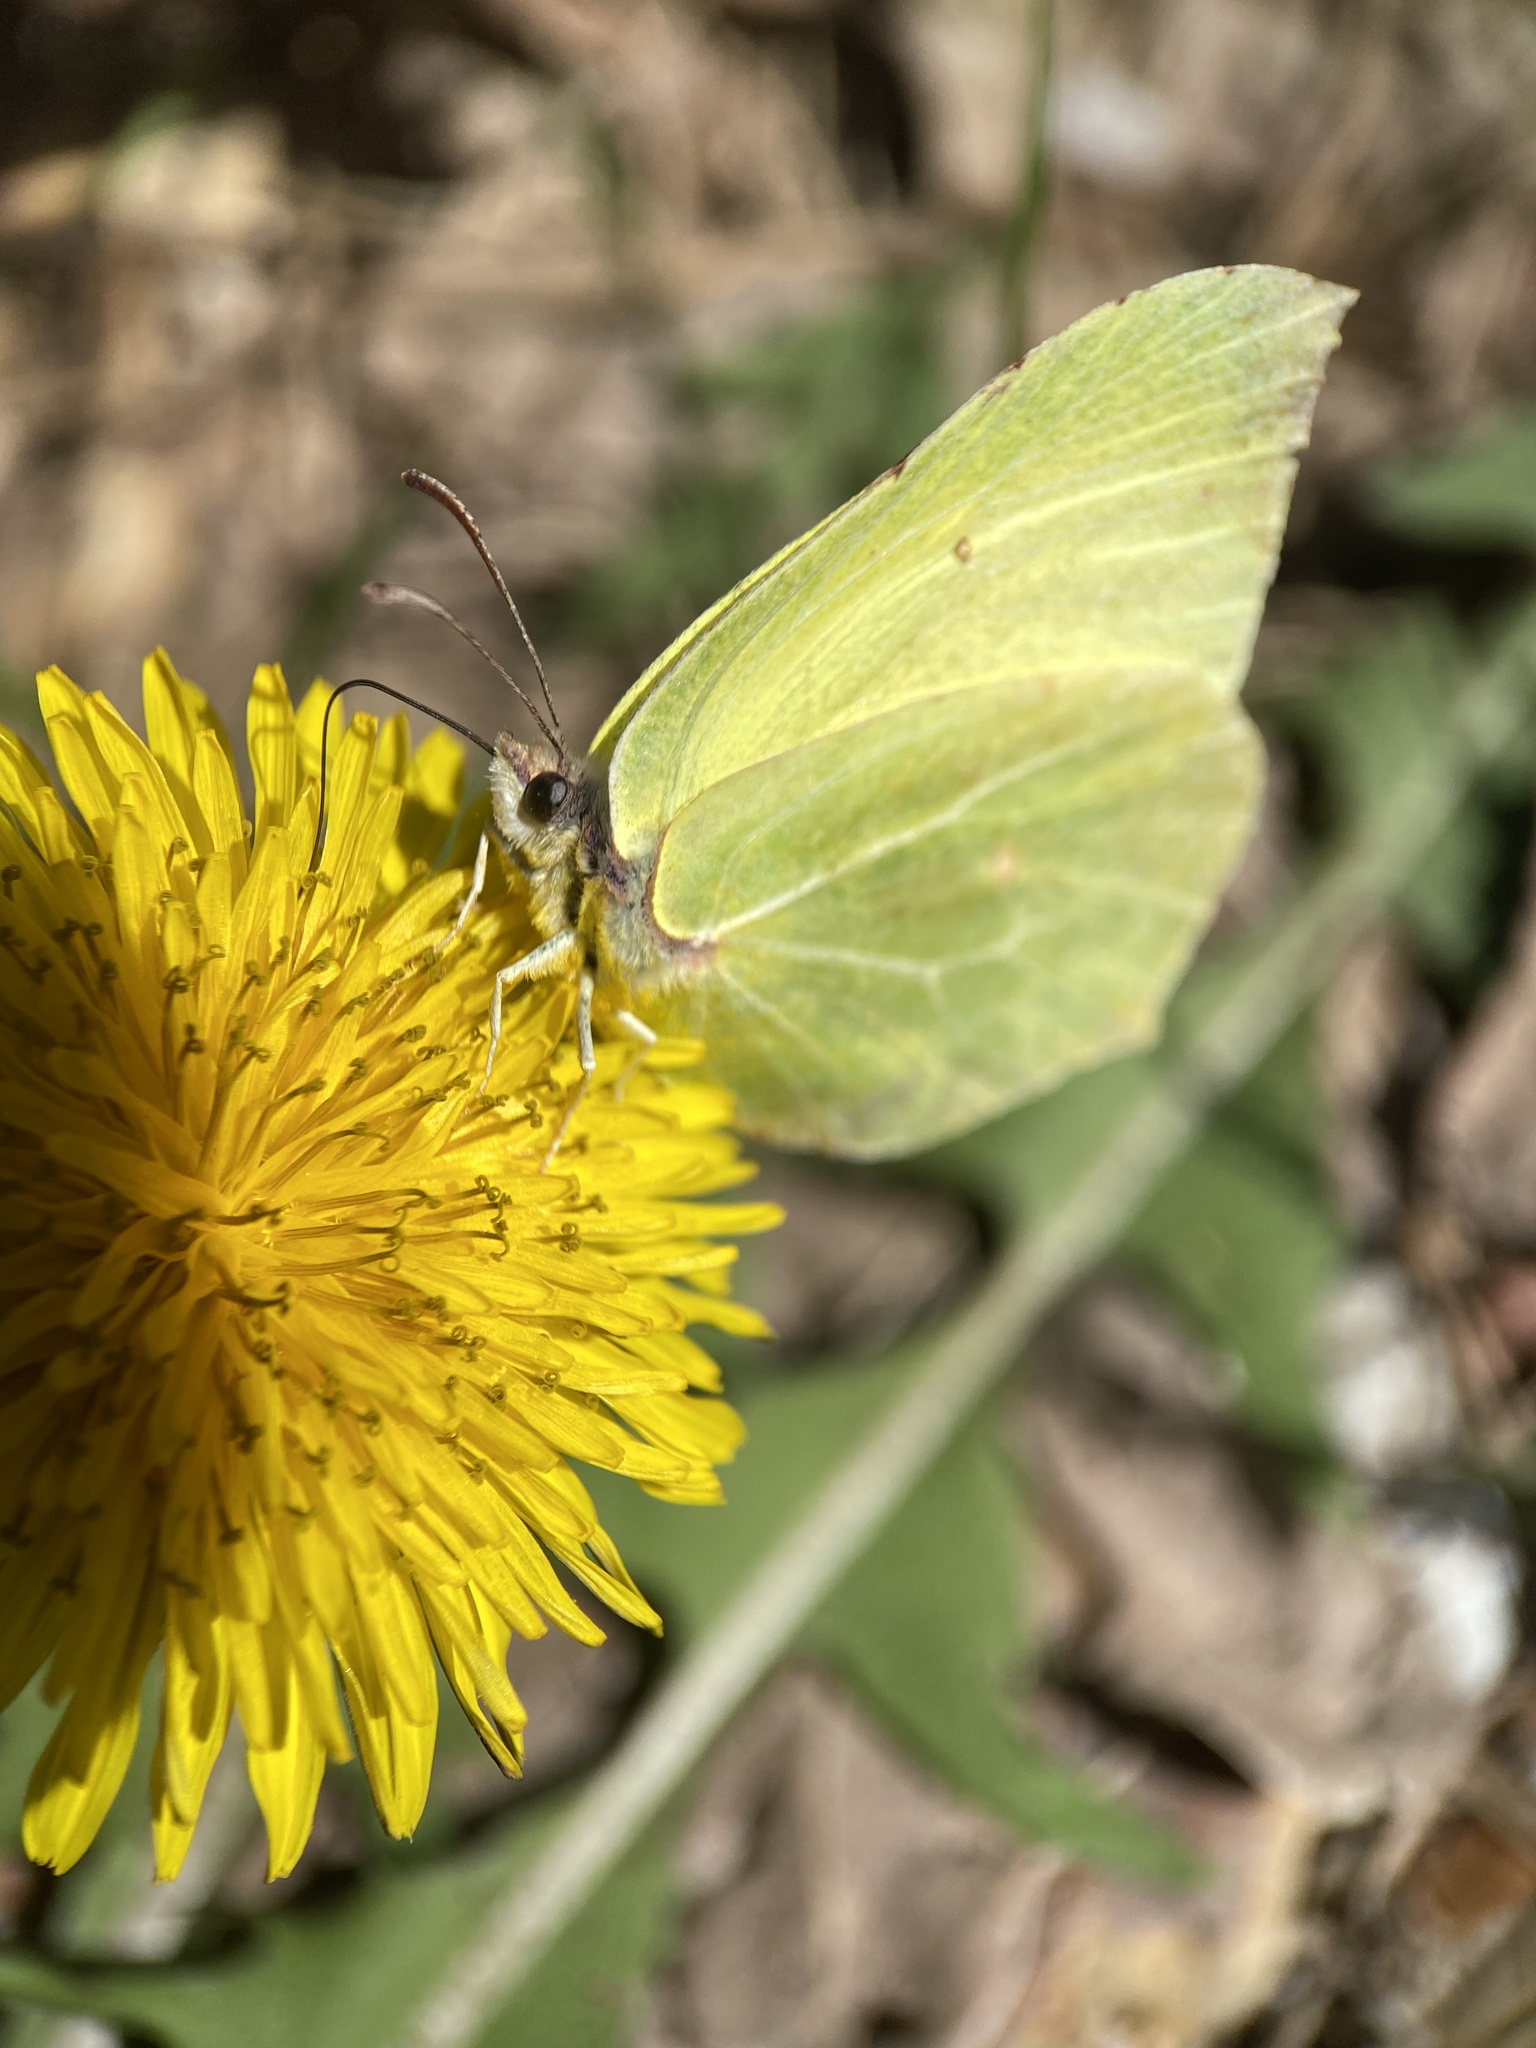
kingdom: Animalia
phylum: Arthropoda
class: Insecta
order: Lepidoptera
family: Pieridae
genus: Gonepteryx
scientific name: Gonepteryx rhamni
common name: Brimstone
